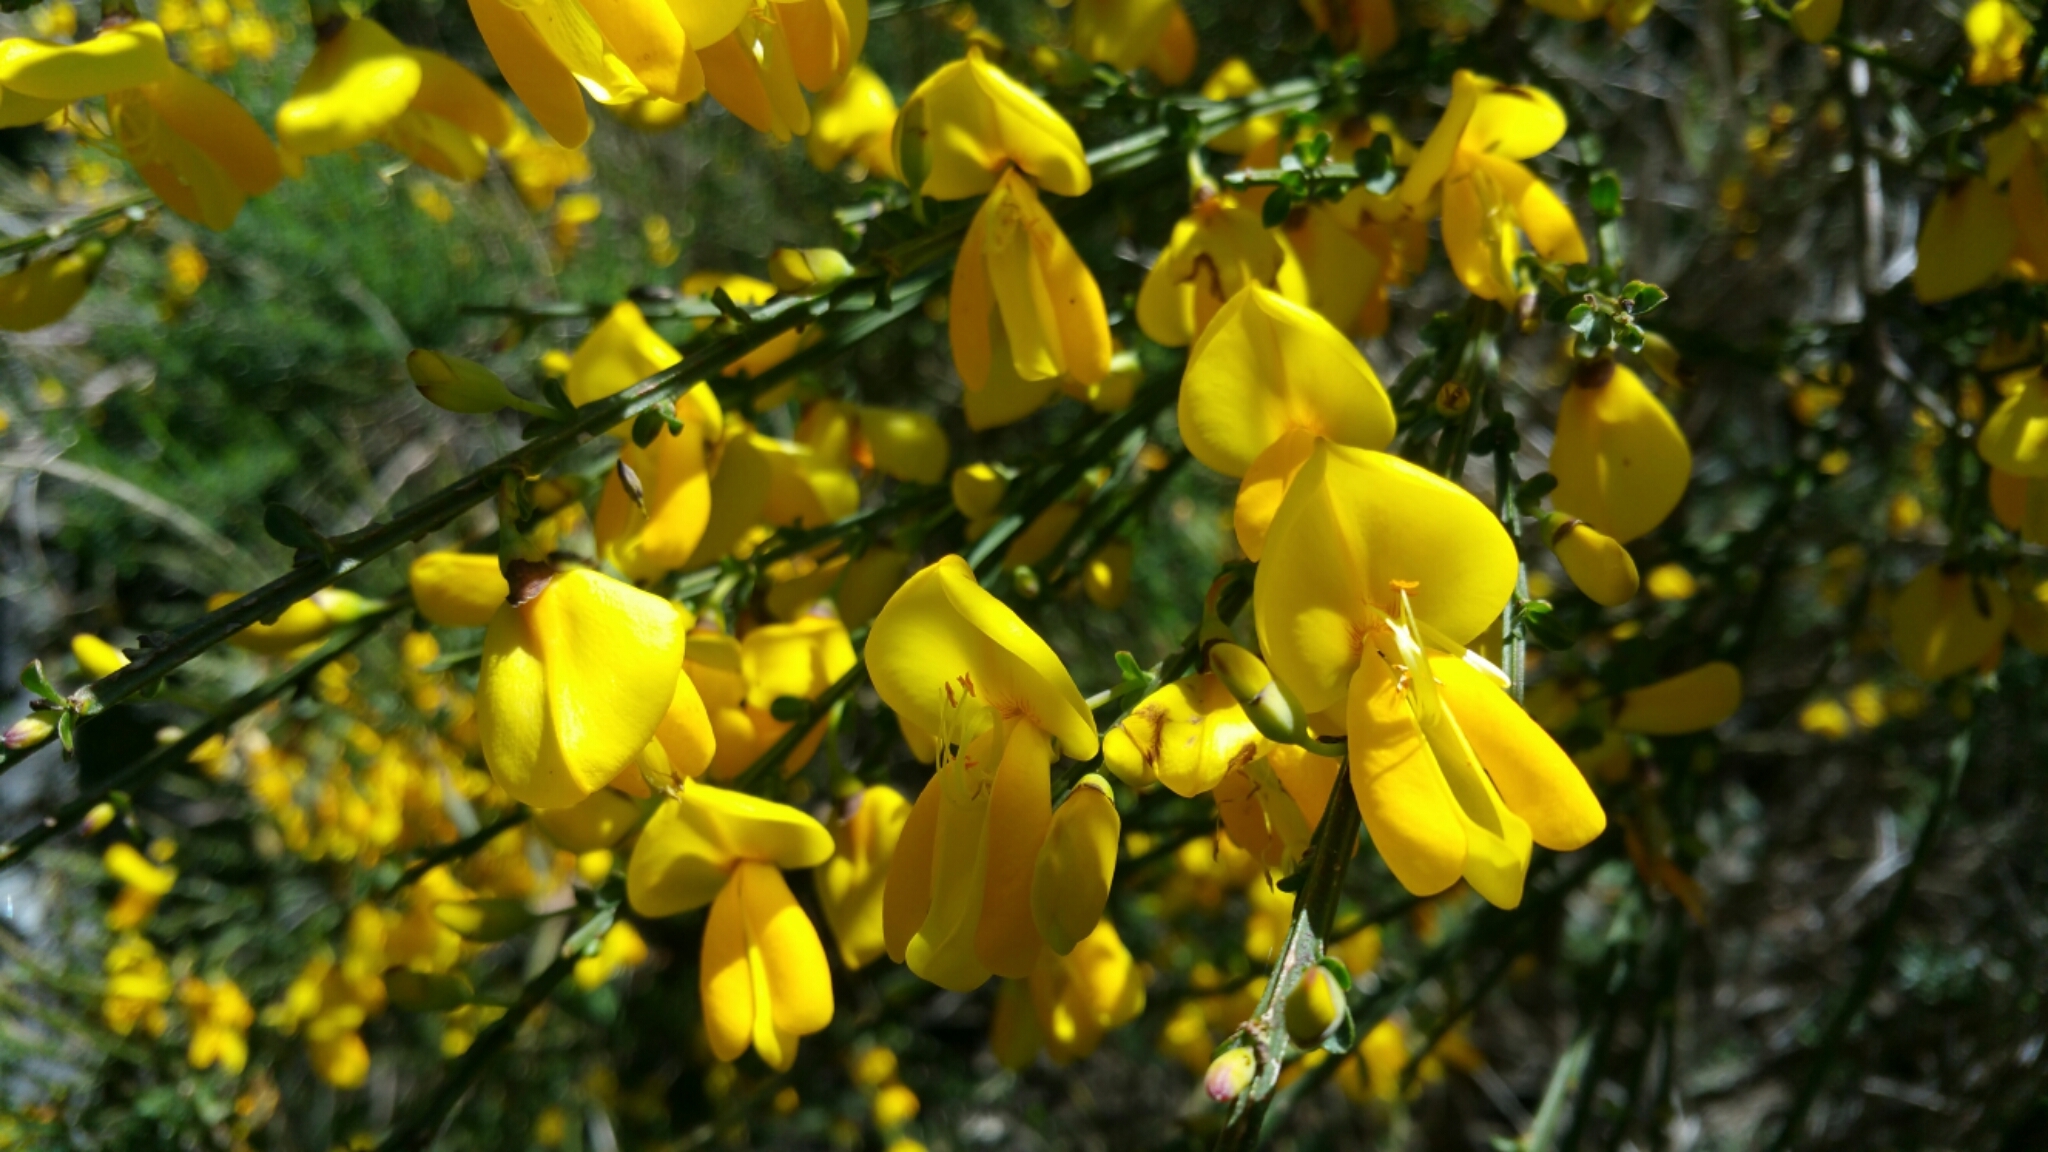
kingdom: Plantae
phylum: Tracheophyta
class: Magnoliopsida
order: Fabales
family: Fabaceae
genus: Cytisus
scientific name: Cytisus scoparius
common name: Scotch broom
